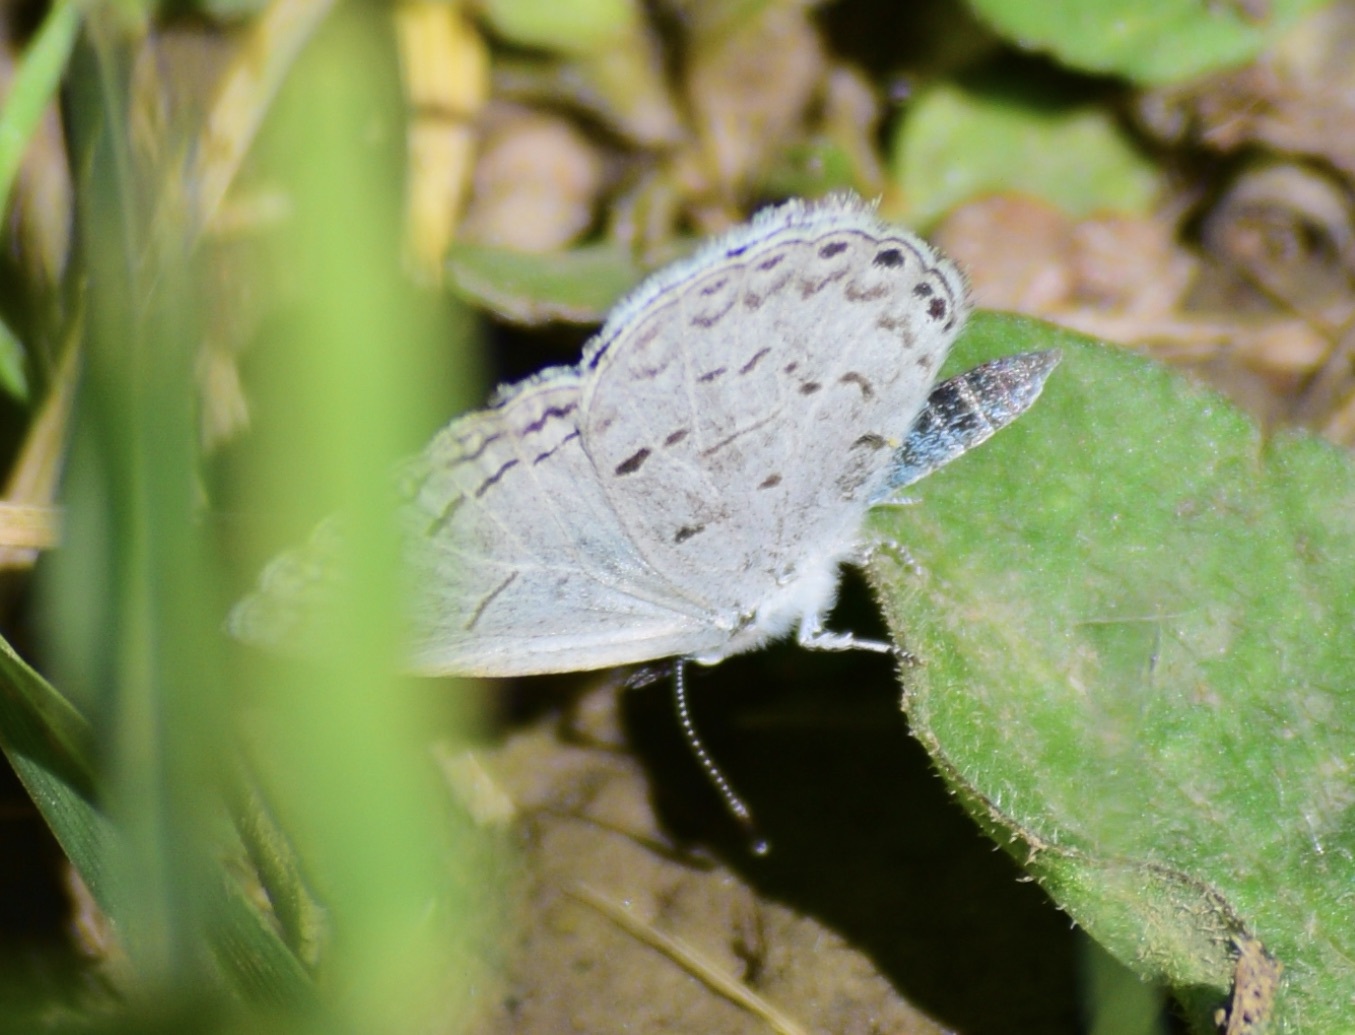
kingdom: Animalia
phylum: Arthropoda
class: Insecta
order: Lepidoptera
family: Lycaenidae
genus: Glaucopsyche
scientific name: Glaucopsyche lygdamus
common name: Silvery blue
